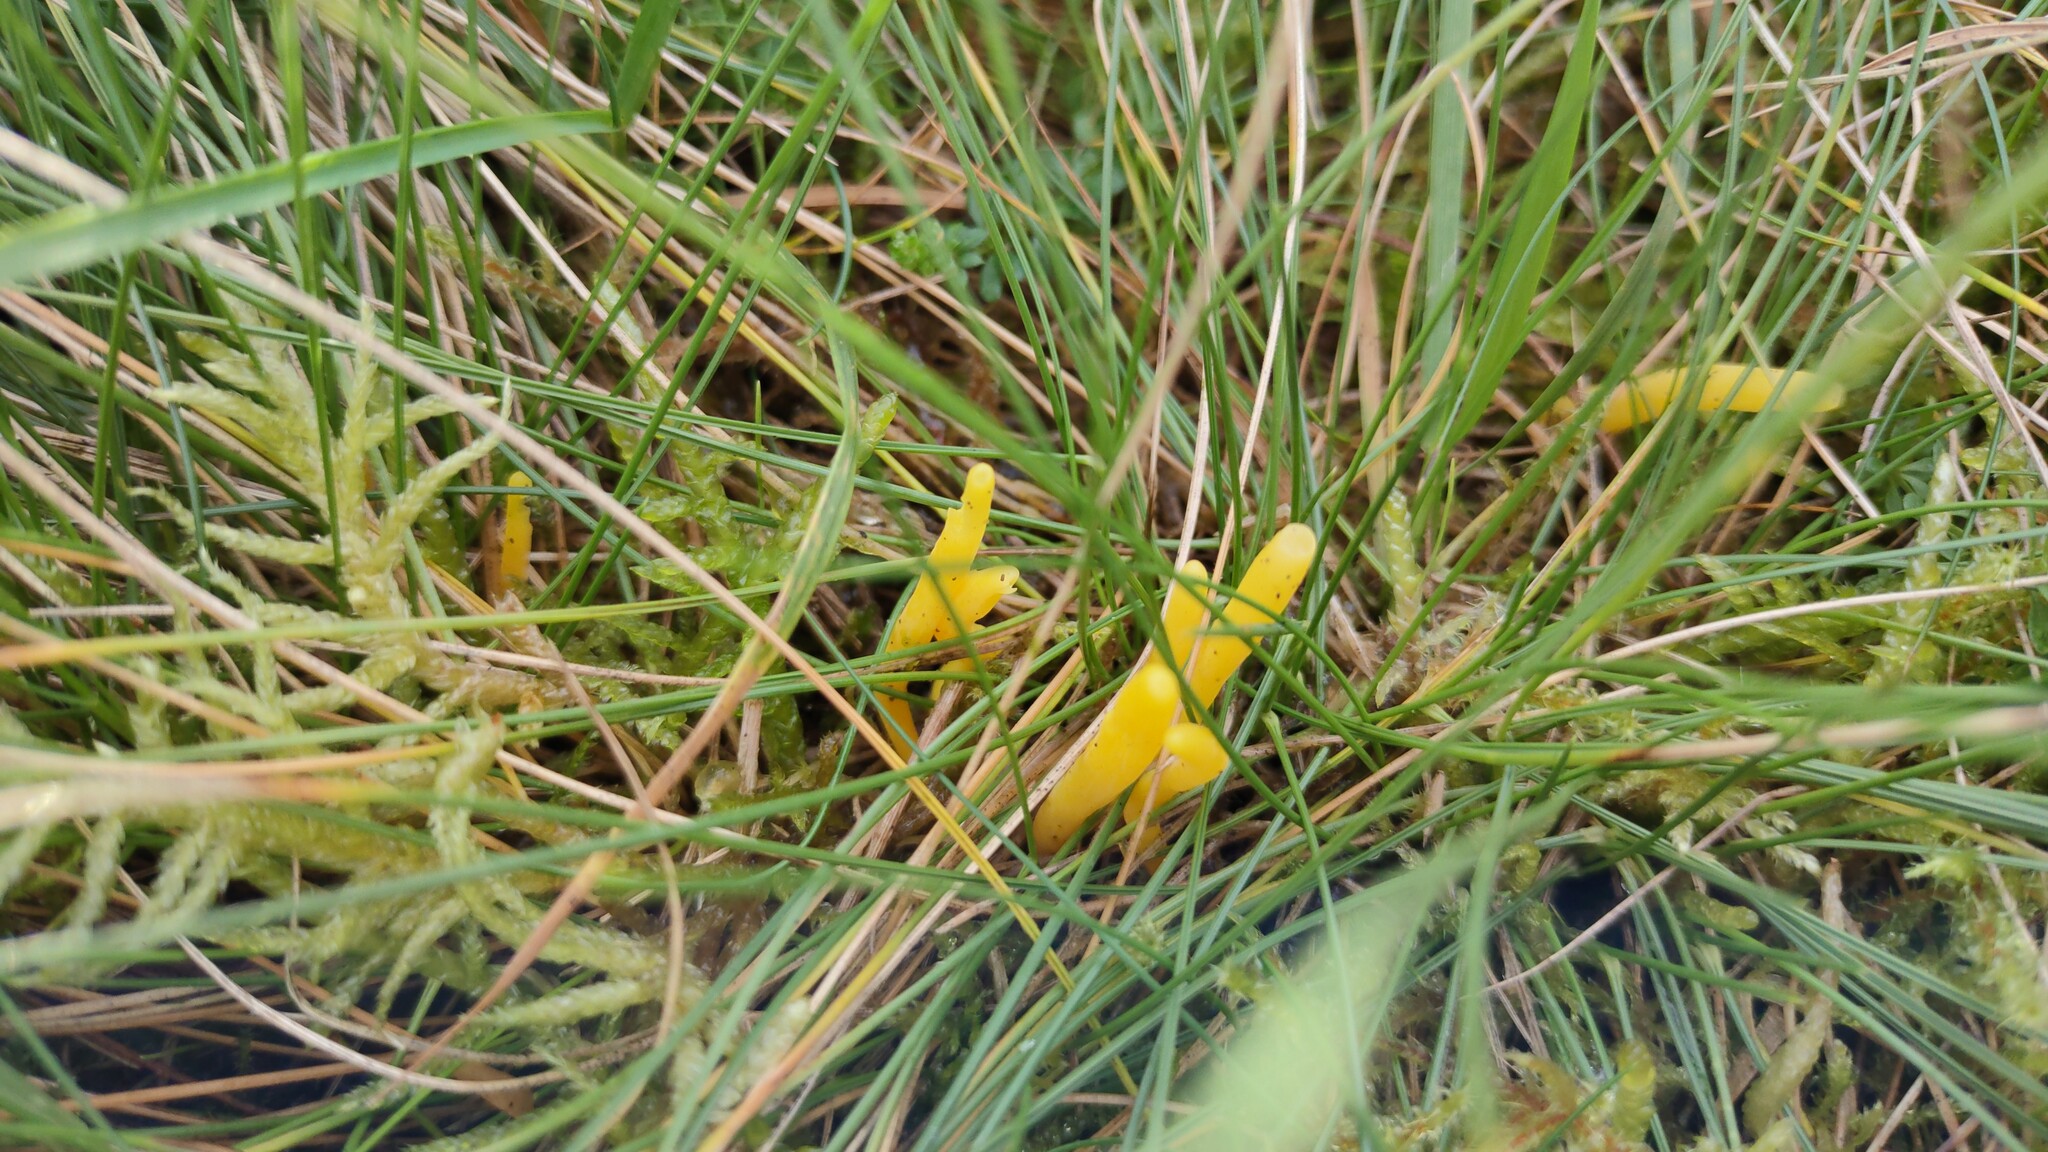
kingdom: Fungi
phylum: Basidiomycota
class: Agaricomycetes
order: Agaricales
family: Clavariaceae
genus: Clavulinopsis
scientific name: Clavulinopsis helvola
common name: Yellow club
